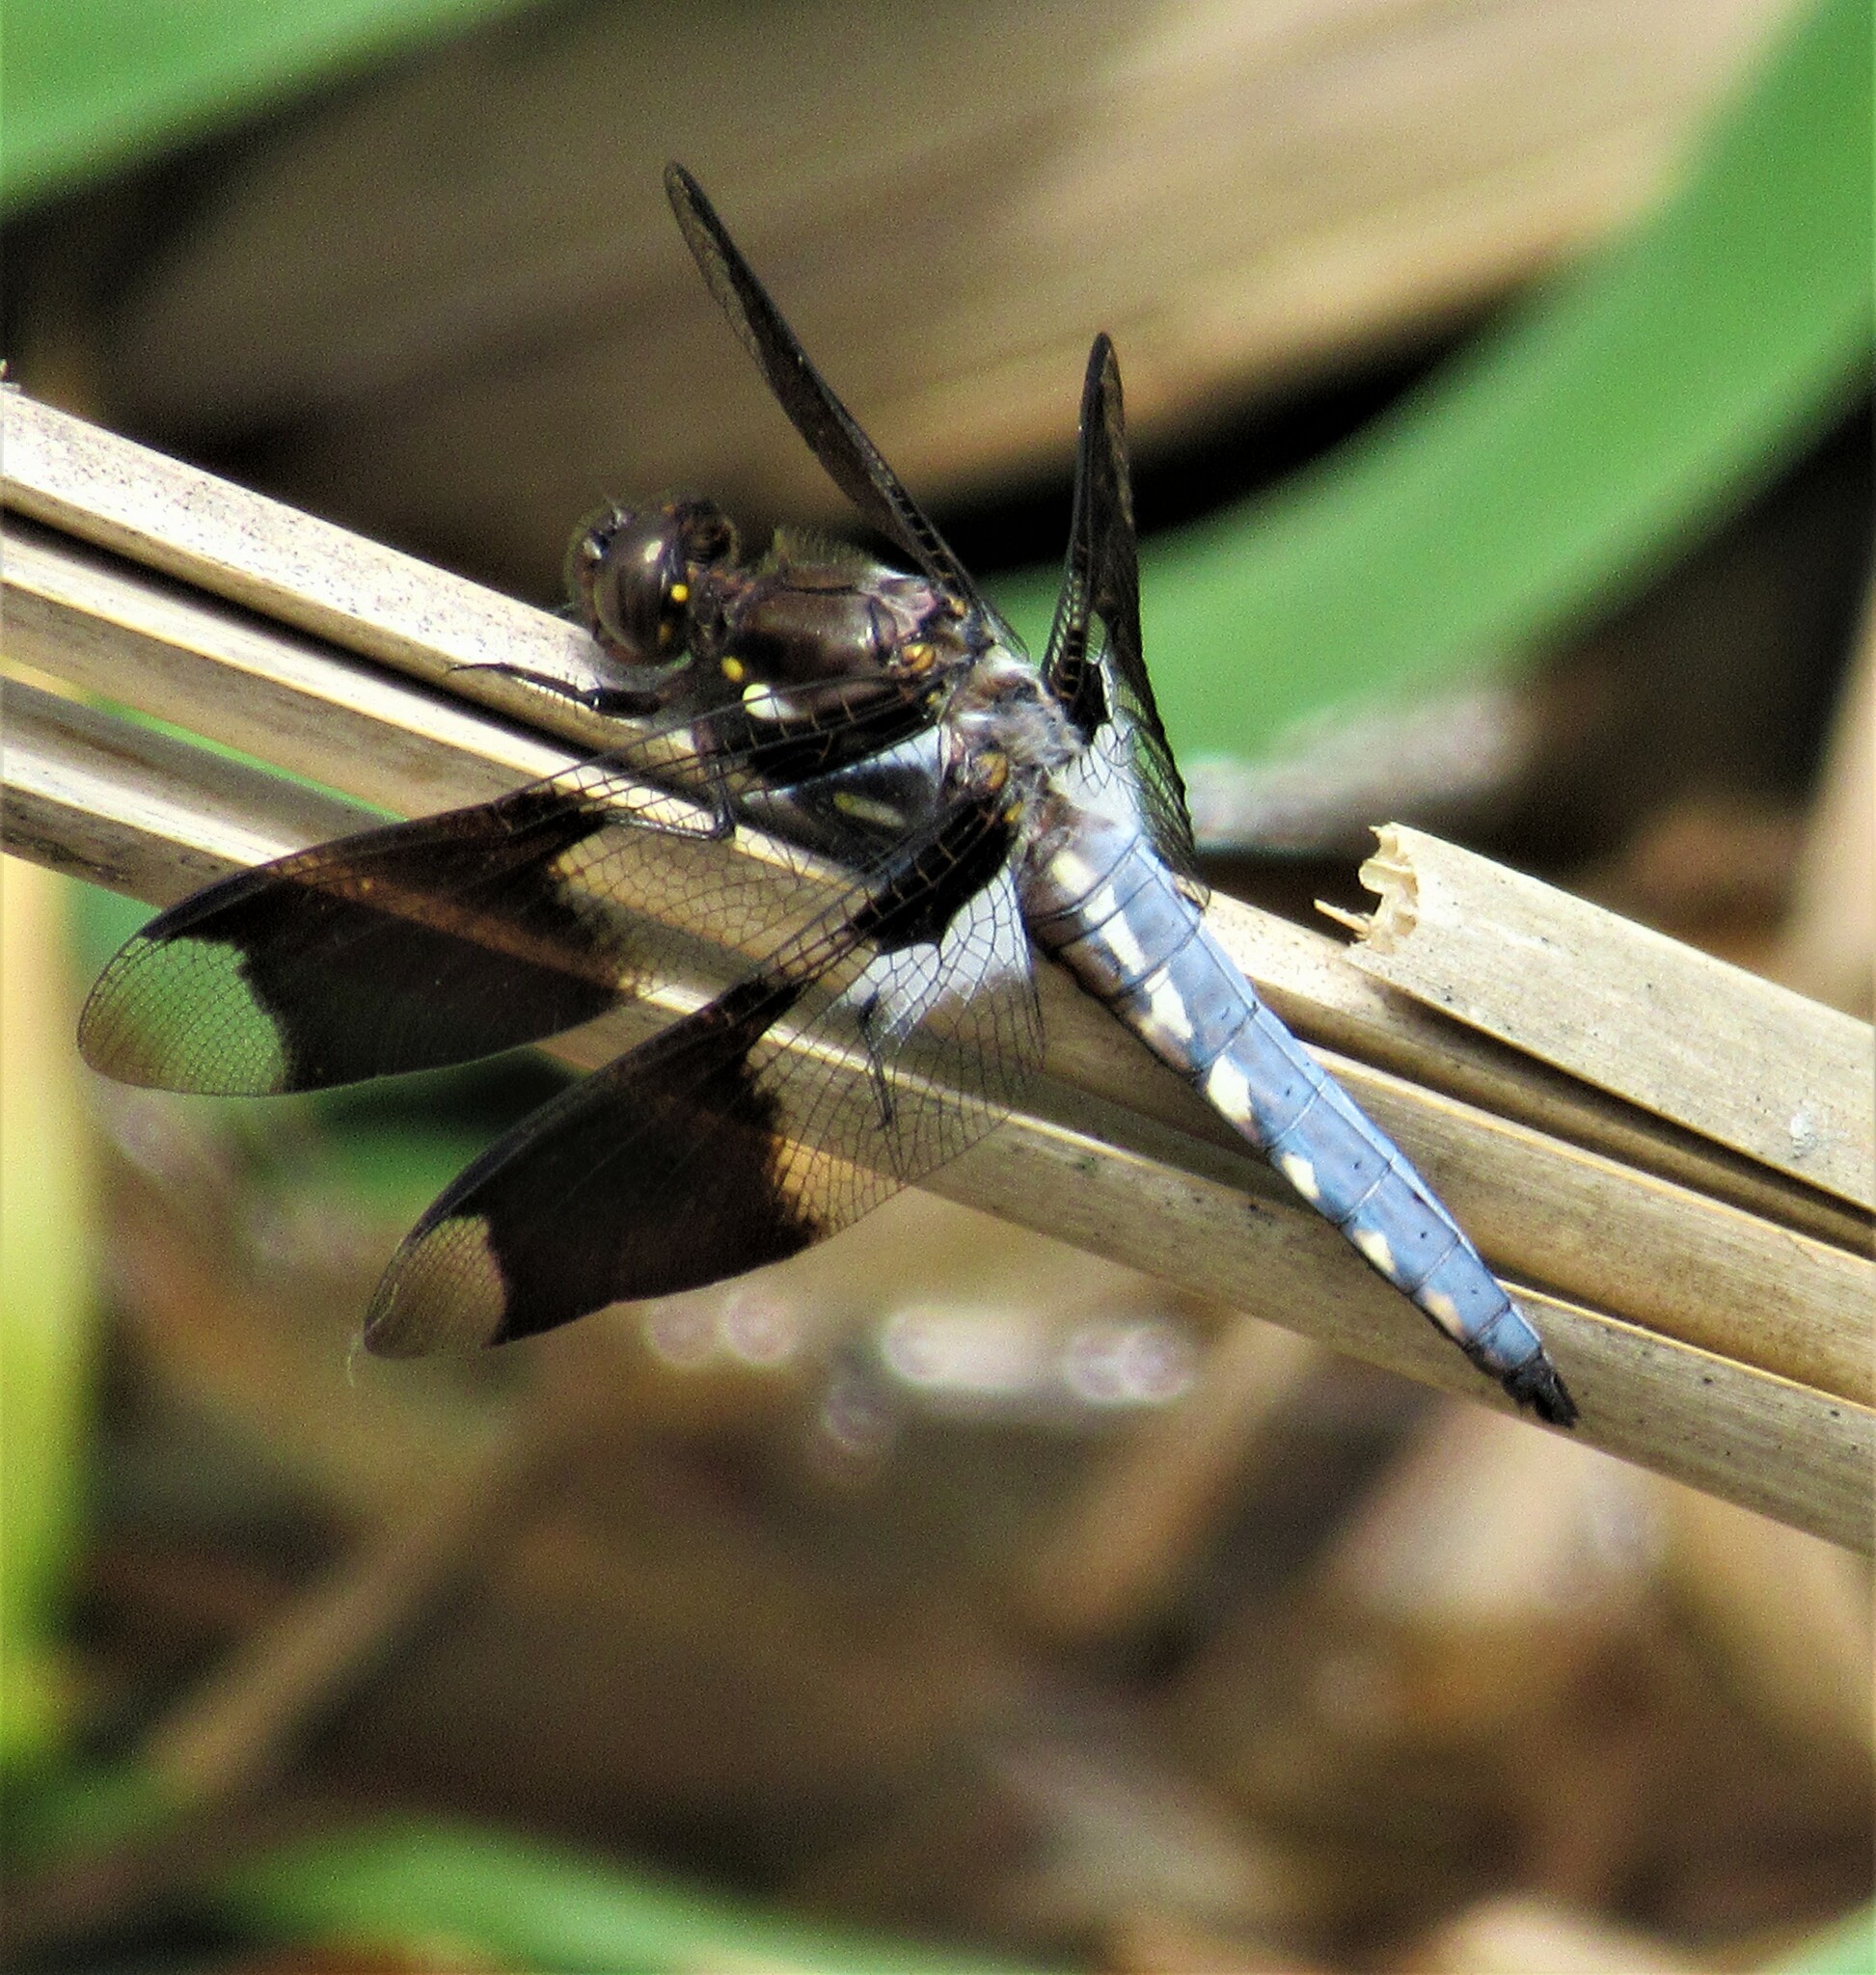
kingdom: Animalia
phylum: Arthropoda
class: Insecta
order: Odonata
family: Libellulidae
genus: Plathemis
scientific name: Plathemis lydia
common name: Common whitetail
